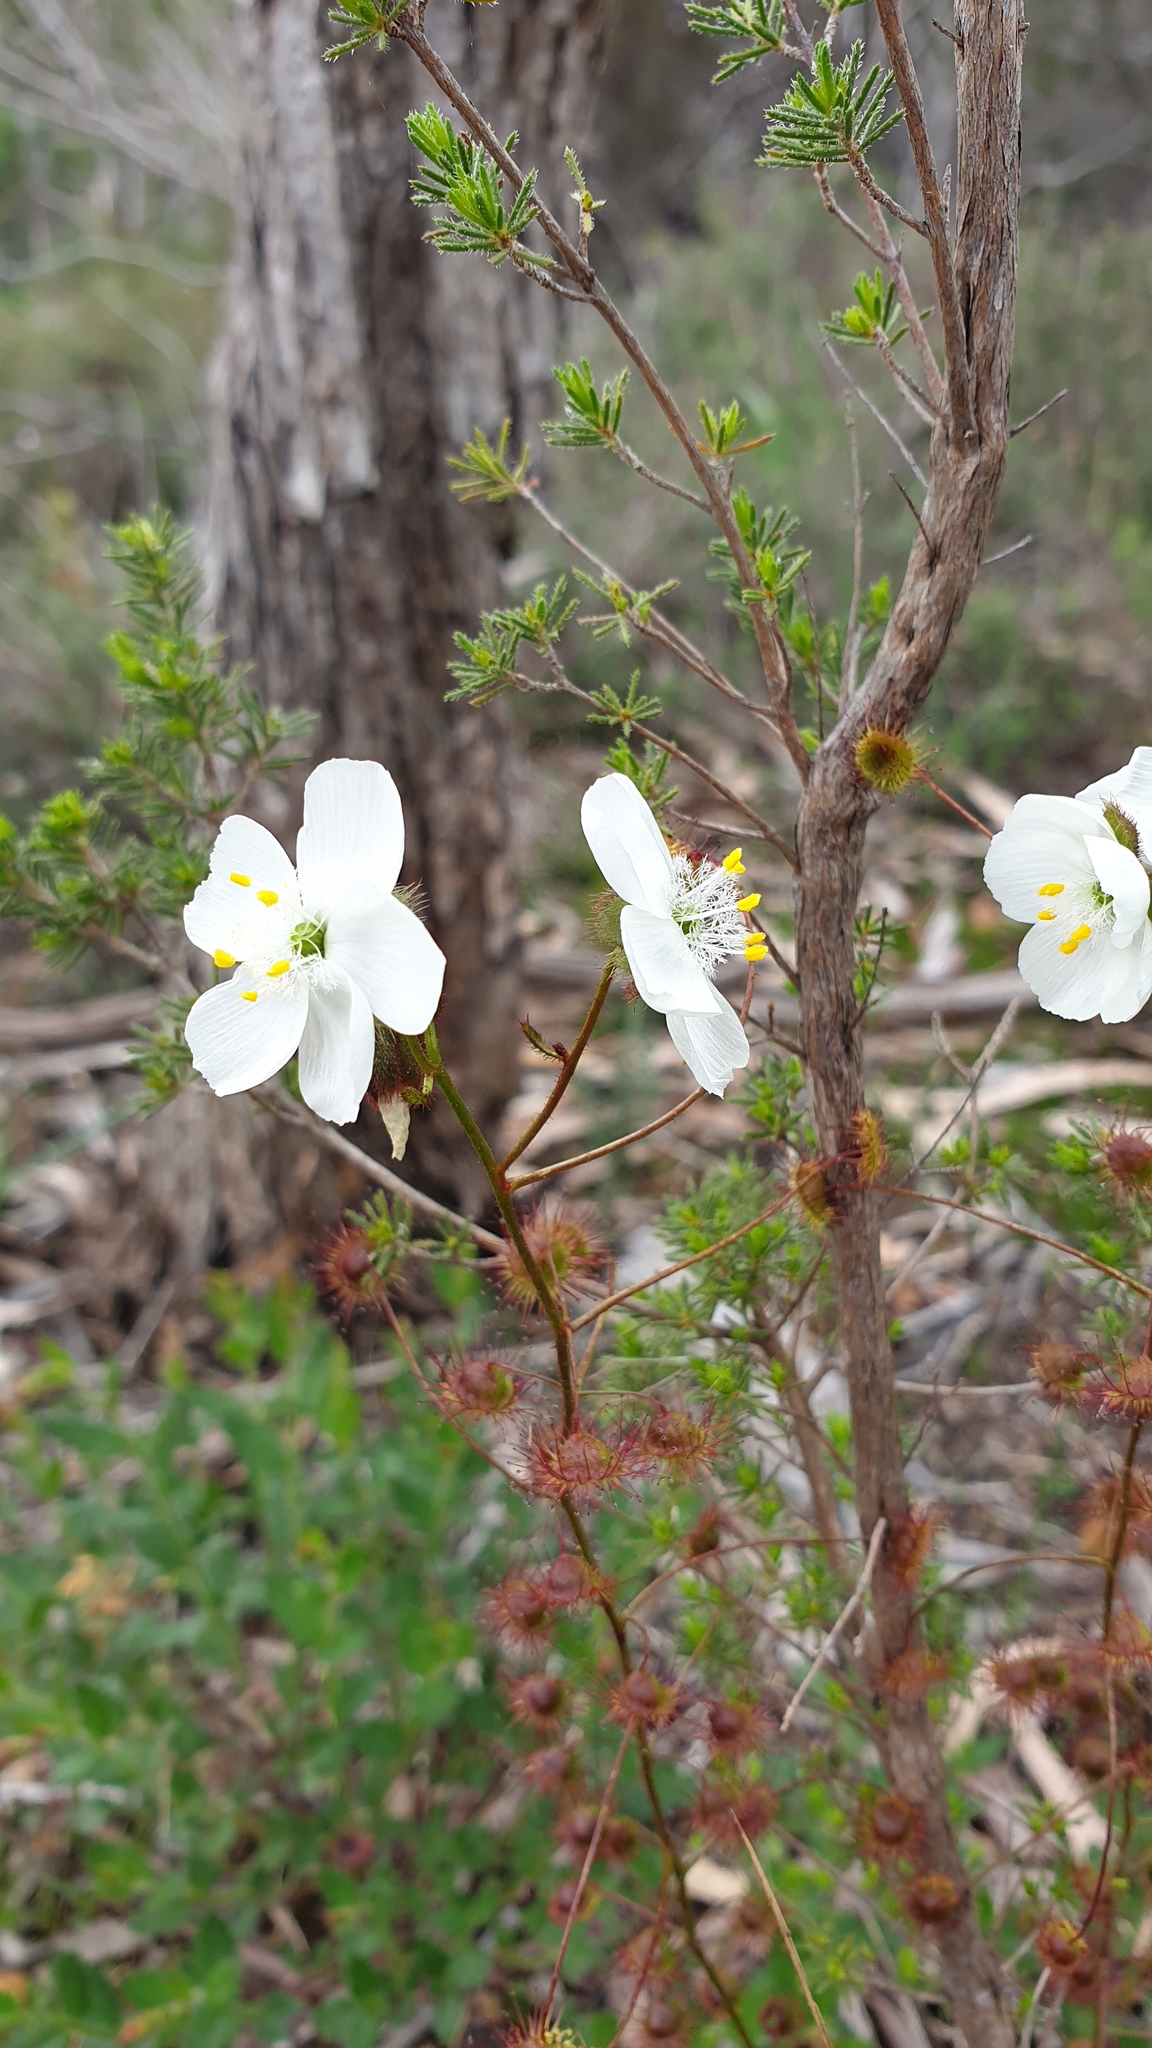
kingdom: Plantae
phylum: Tracheophyta
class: Magnoliopsida
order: Caryophyllales
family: Droseraceae
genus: Drosera
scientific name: Drosera planchonii
